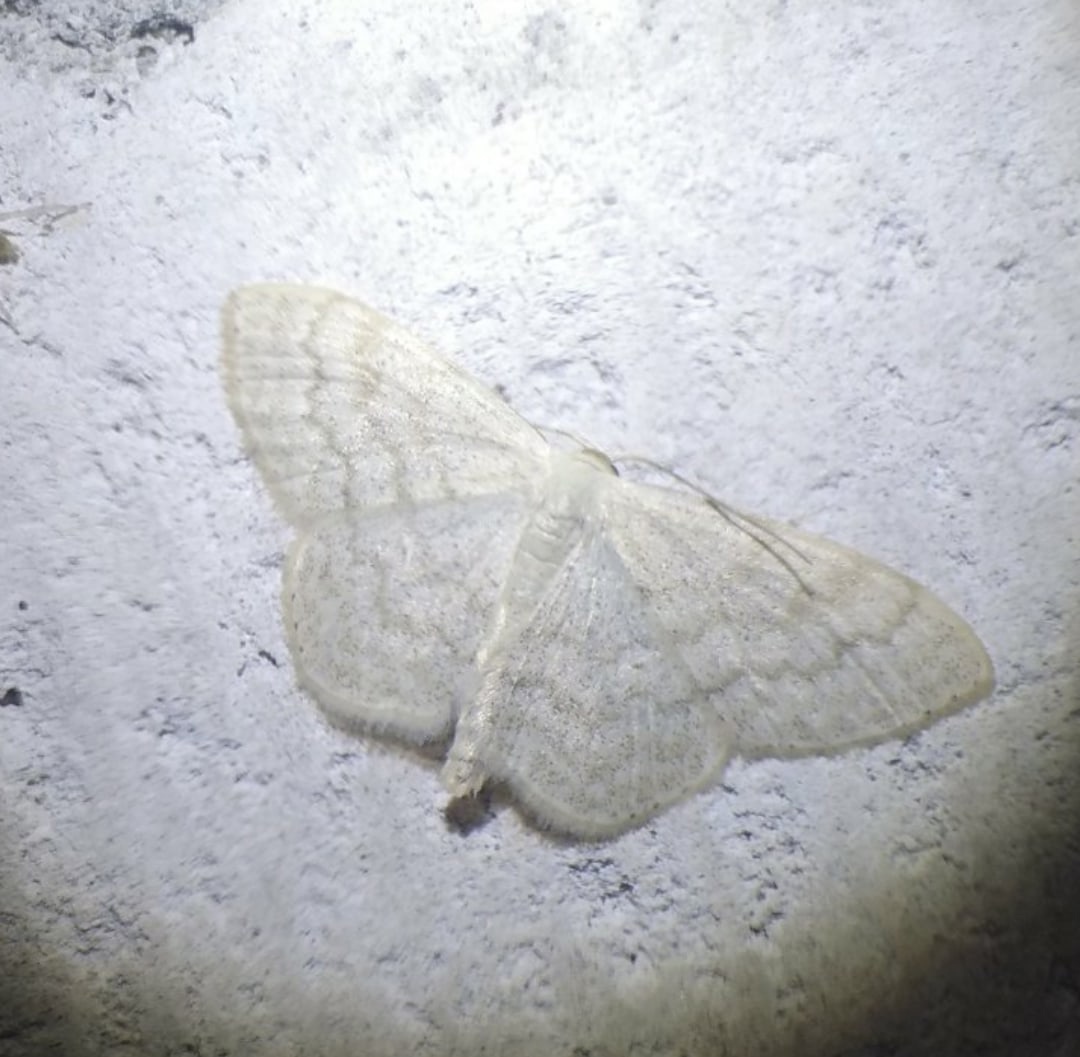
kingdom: Animalia
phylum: Arthropoda
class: Insecta
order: Lepidoptera
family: Geometridae
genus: Scopula
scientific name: Scopula floslactata
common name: Cream wave
